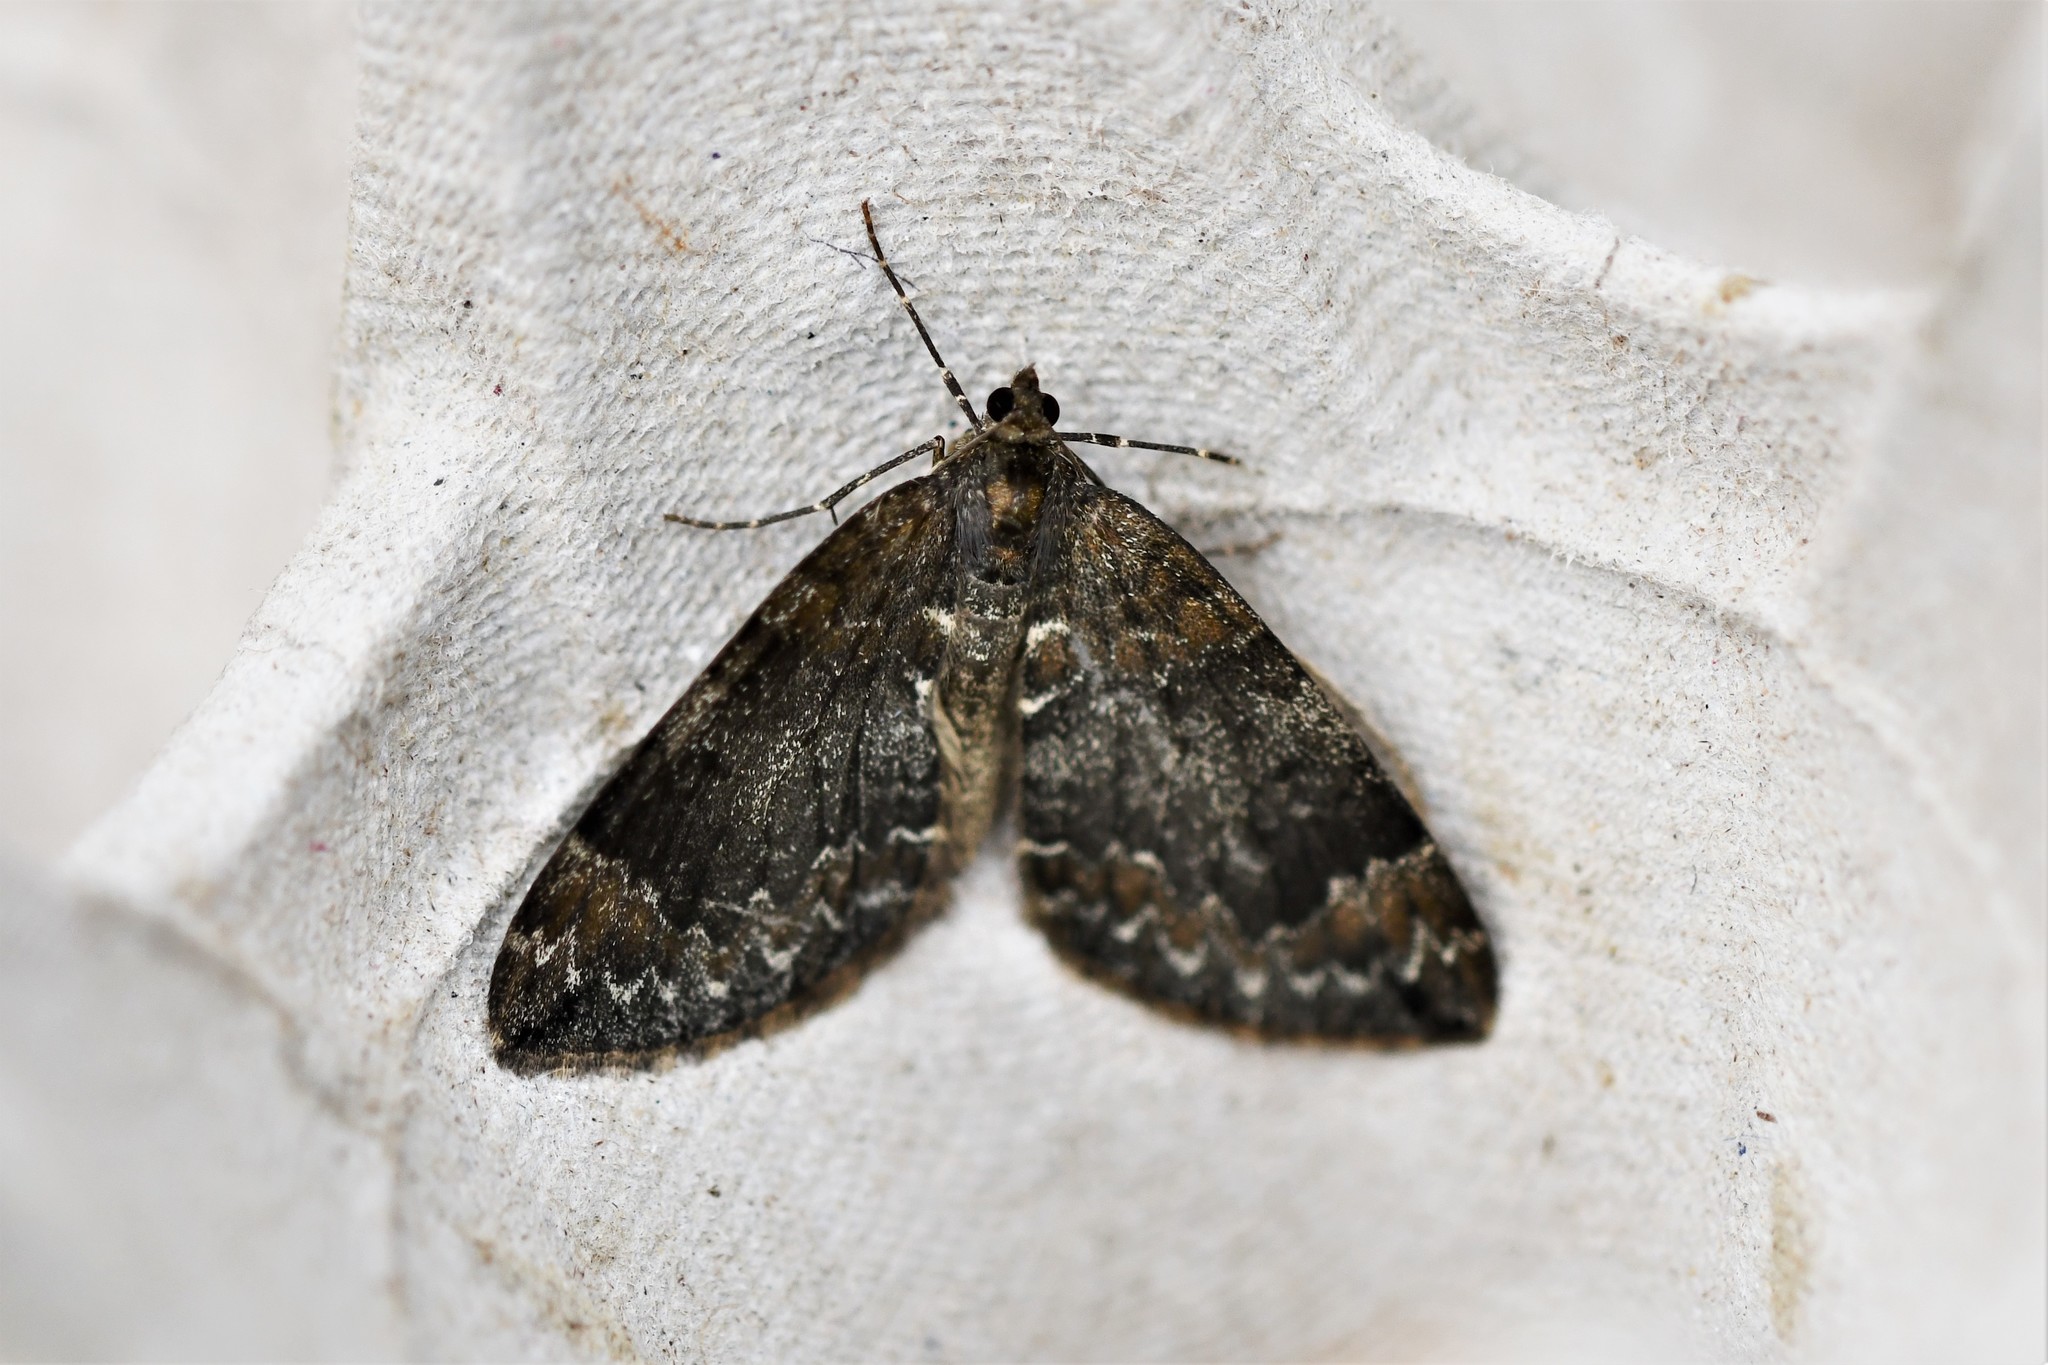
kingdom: Animalia
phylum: Arthropoda
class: Insecta
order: Lepidoptera
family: Geometridae
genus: Dysstroma
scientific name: Dysstroma truncata
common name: Common marbled carpet
